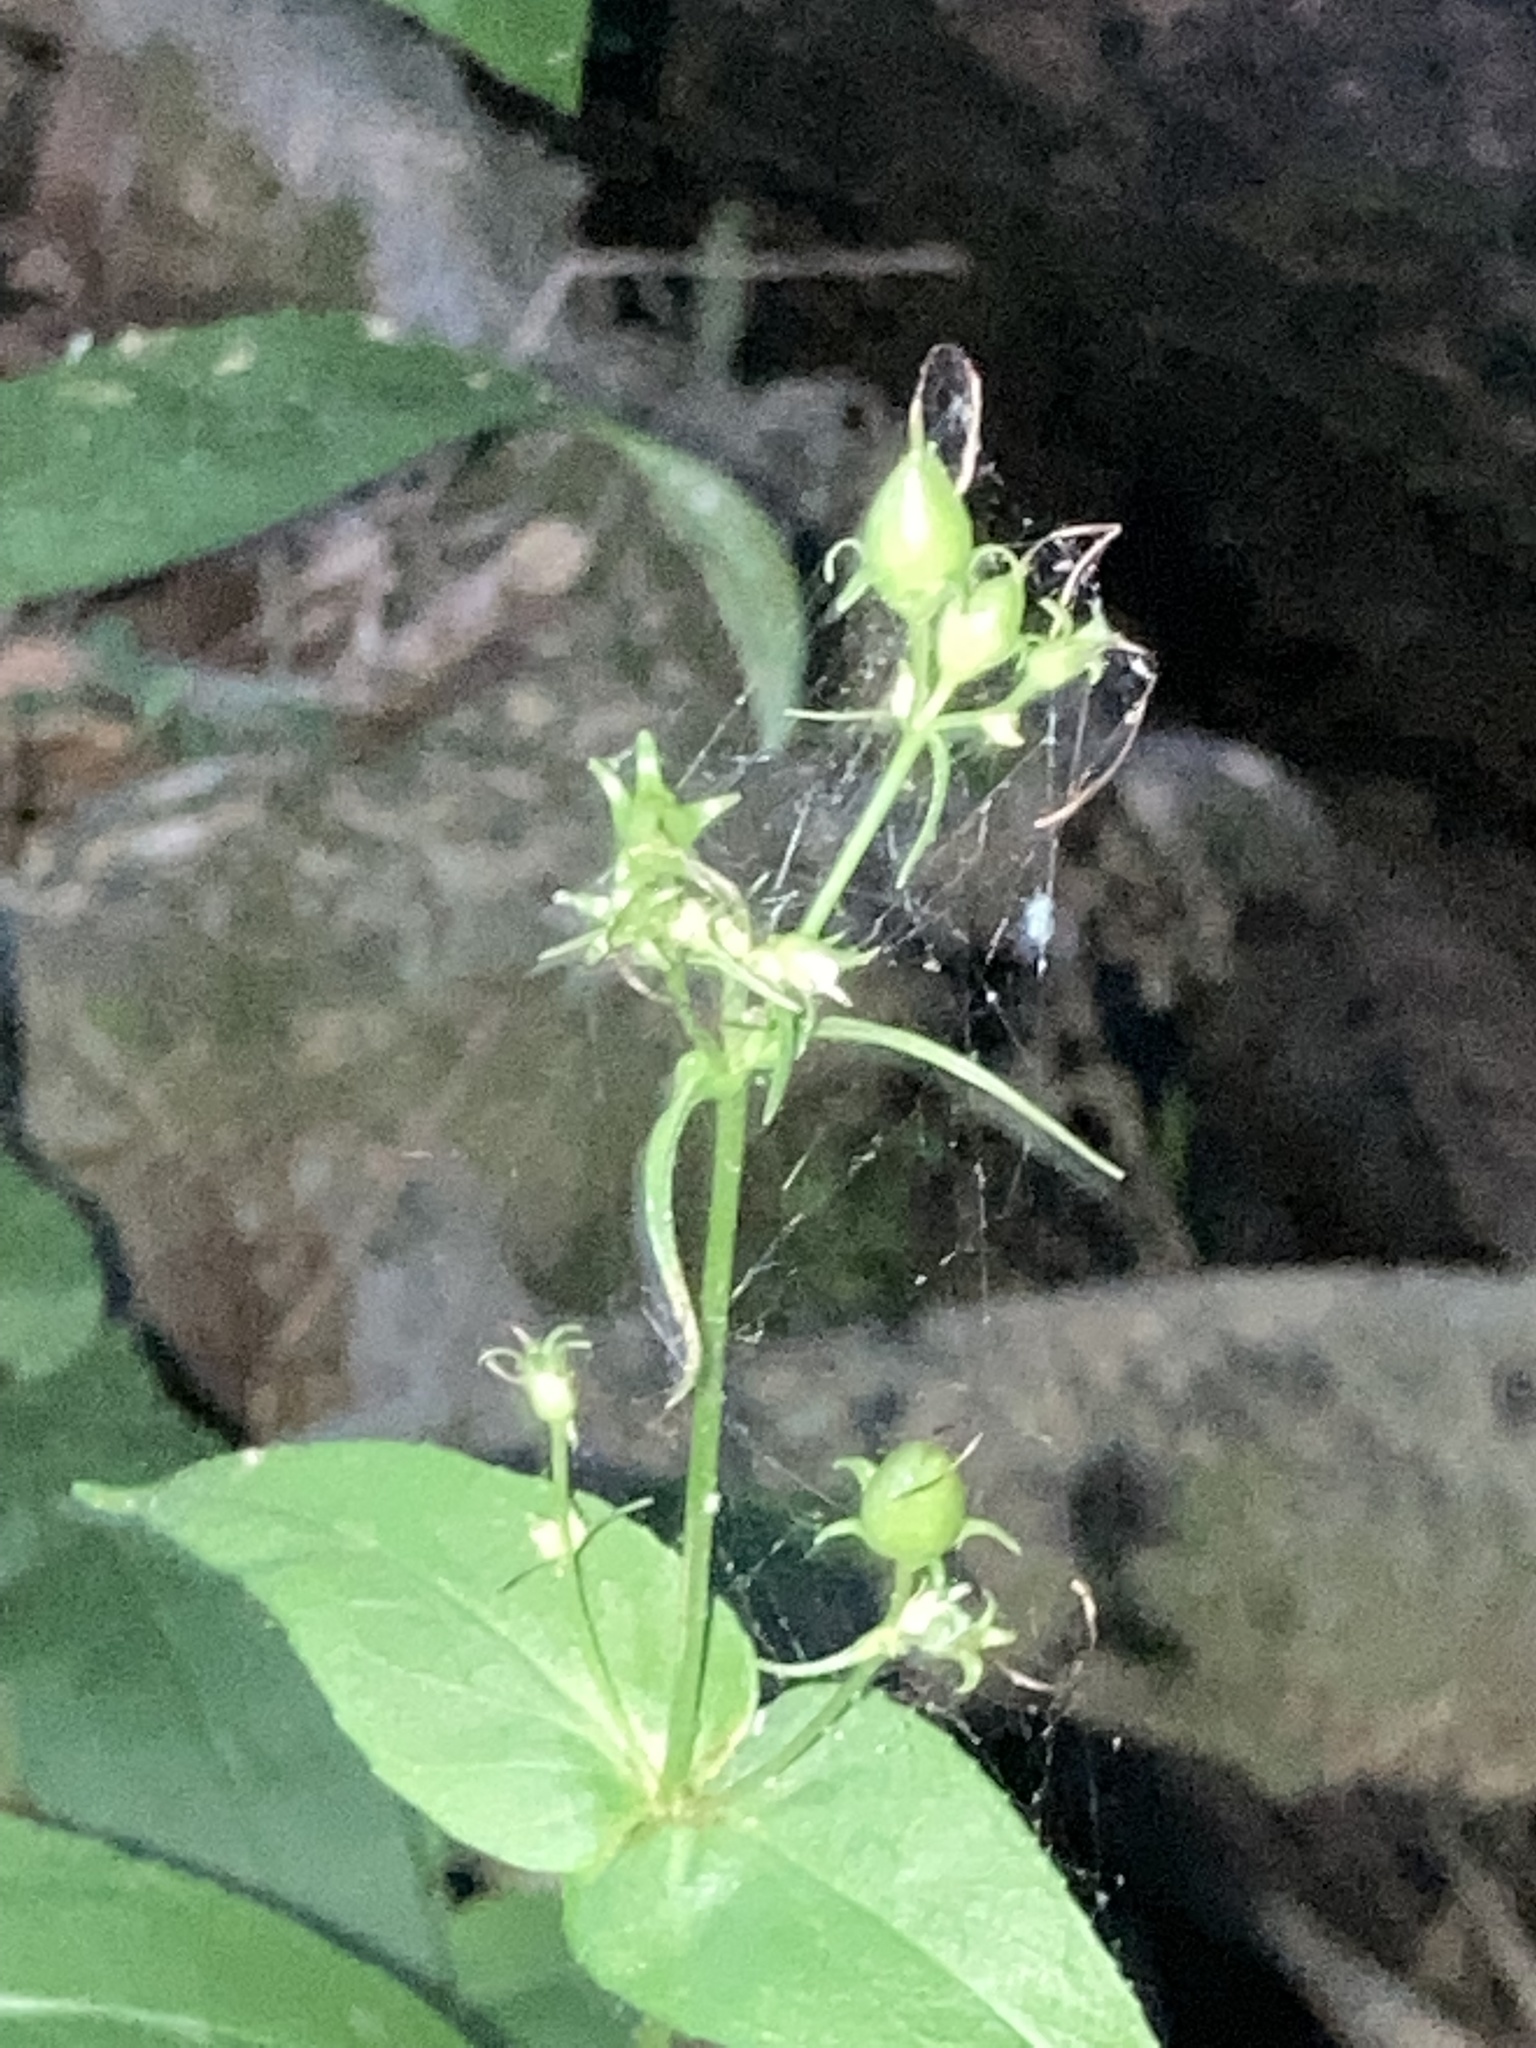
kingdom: Plantae
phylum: Tracheophyta
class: Magnoliopsida
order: Lamiales
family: Plantaginaceae
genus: Penstemon
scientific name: Penstemon digitalis
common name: Foxglove beardtongue
